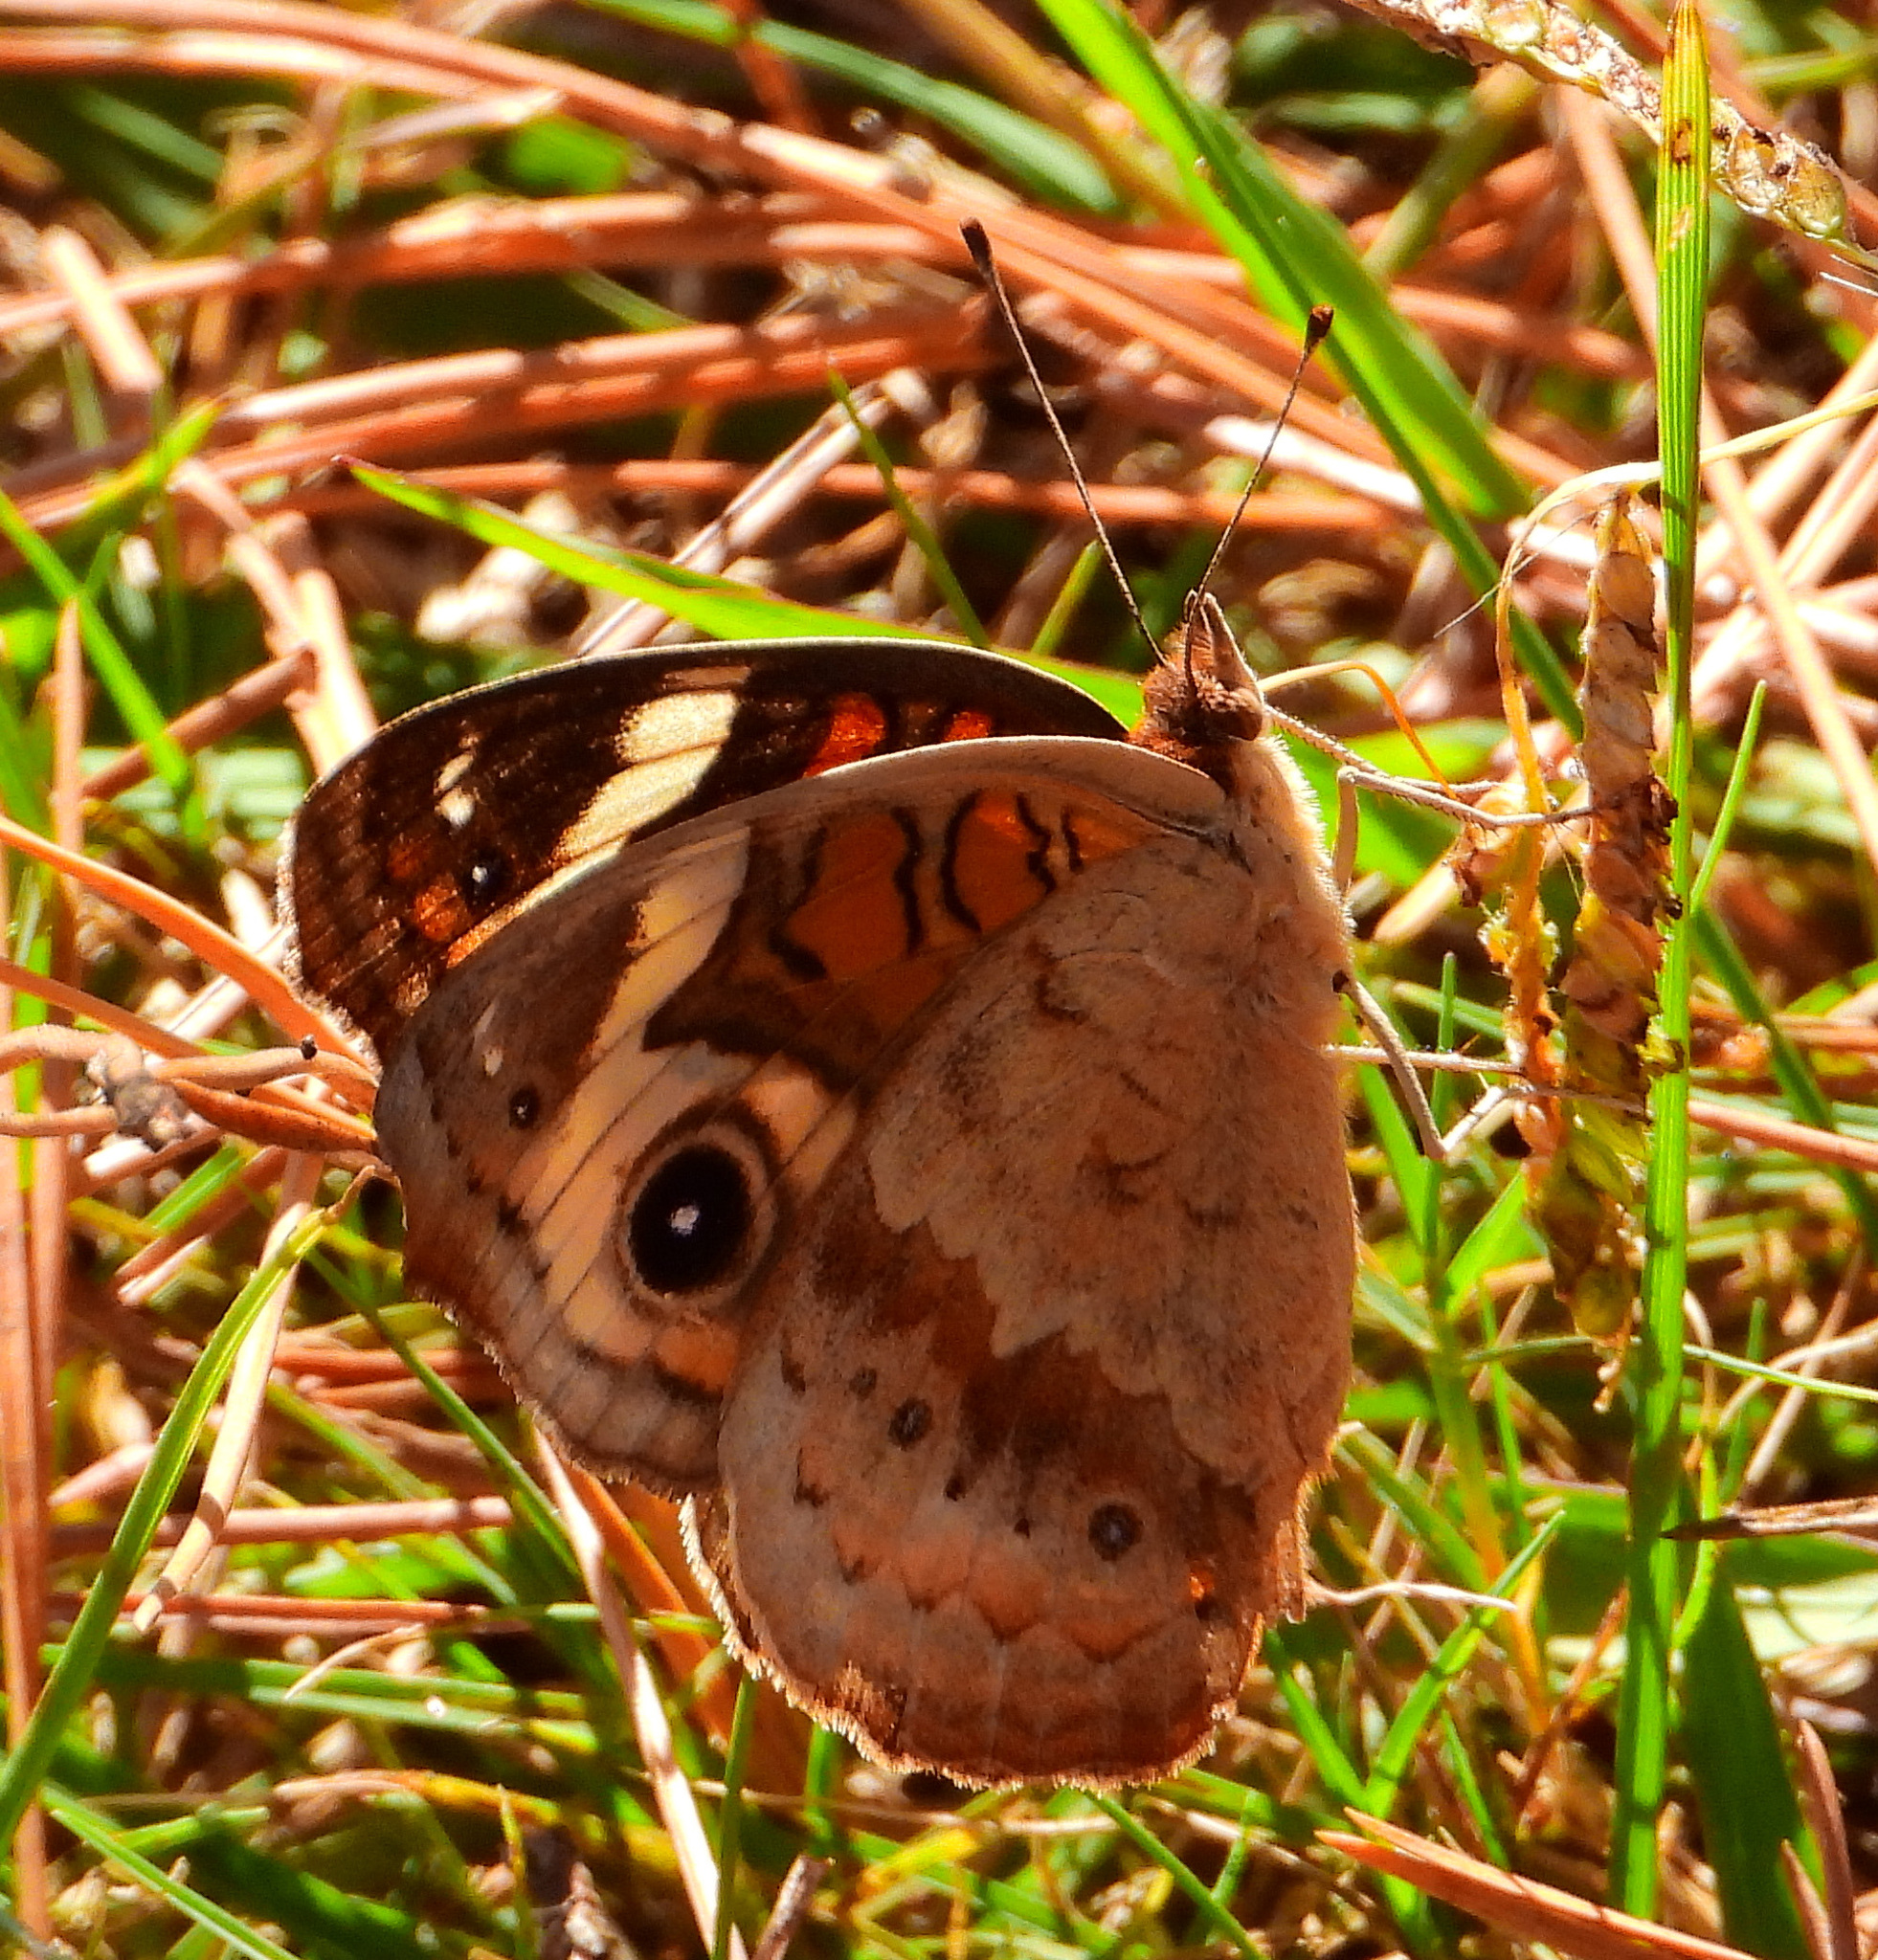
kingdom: Animalia
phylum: Arthropoda
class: Insecta
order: Lepidoptera
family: Nymphalidae
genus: Junonia
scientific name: Junonia coenia
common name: Common buckeye
